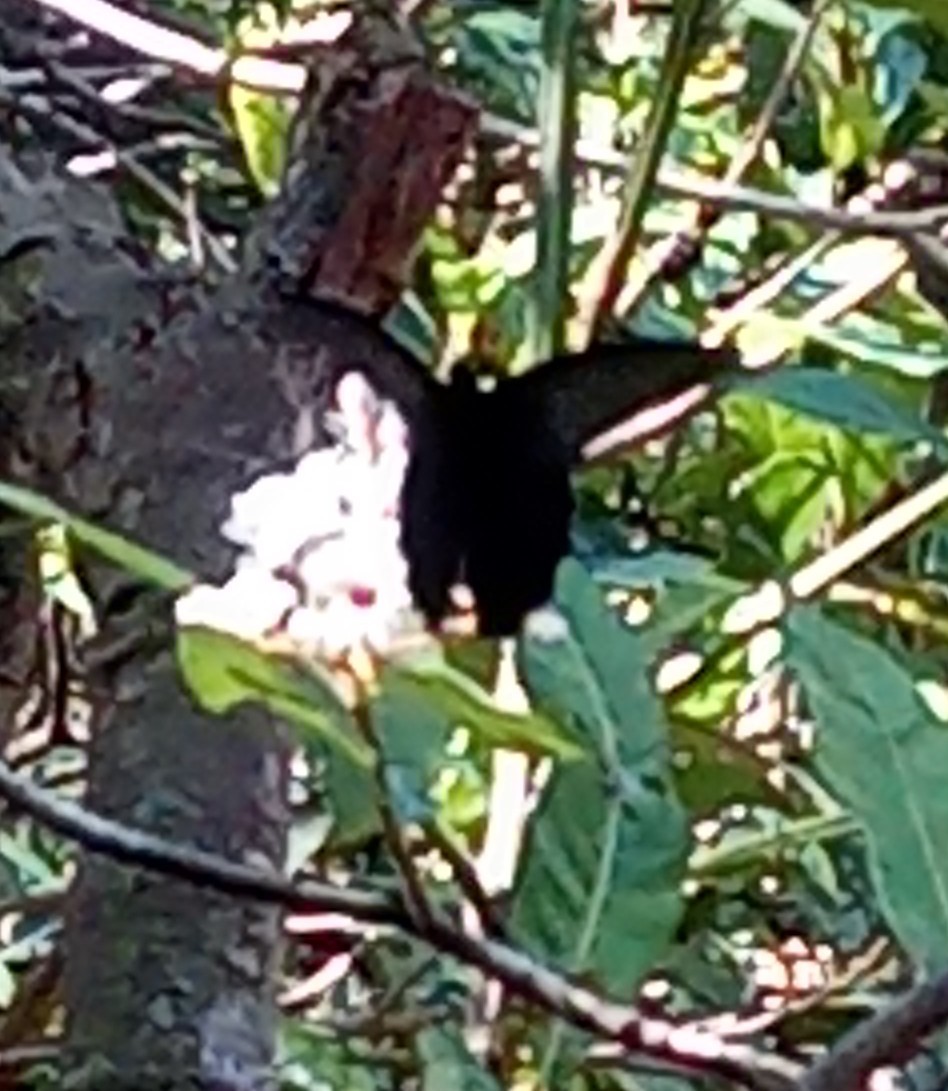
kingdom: Animalia
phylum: Arthropoda
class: Insecta
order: Lepidoptera
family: Papilionidae
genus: Papilio
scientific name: Papilio protenor
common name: Spangle
